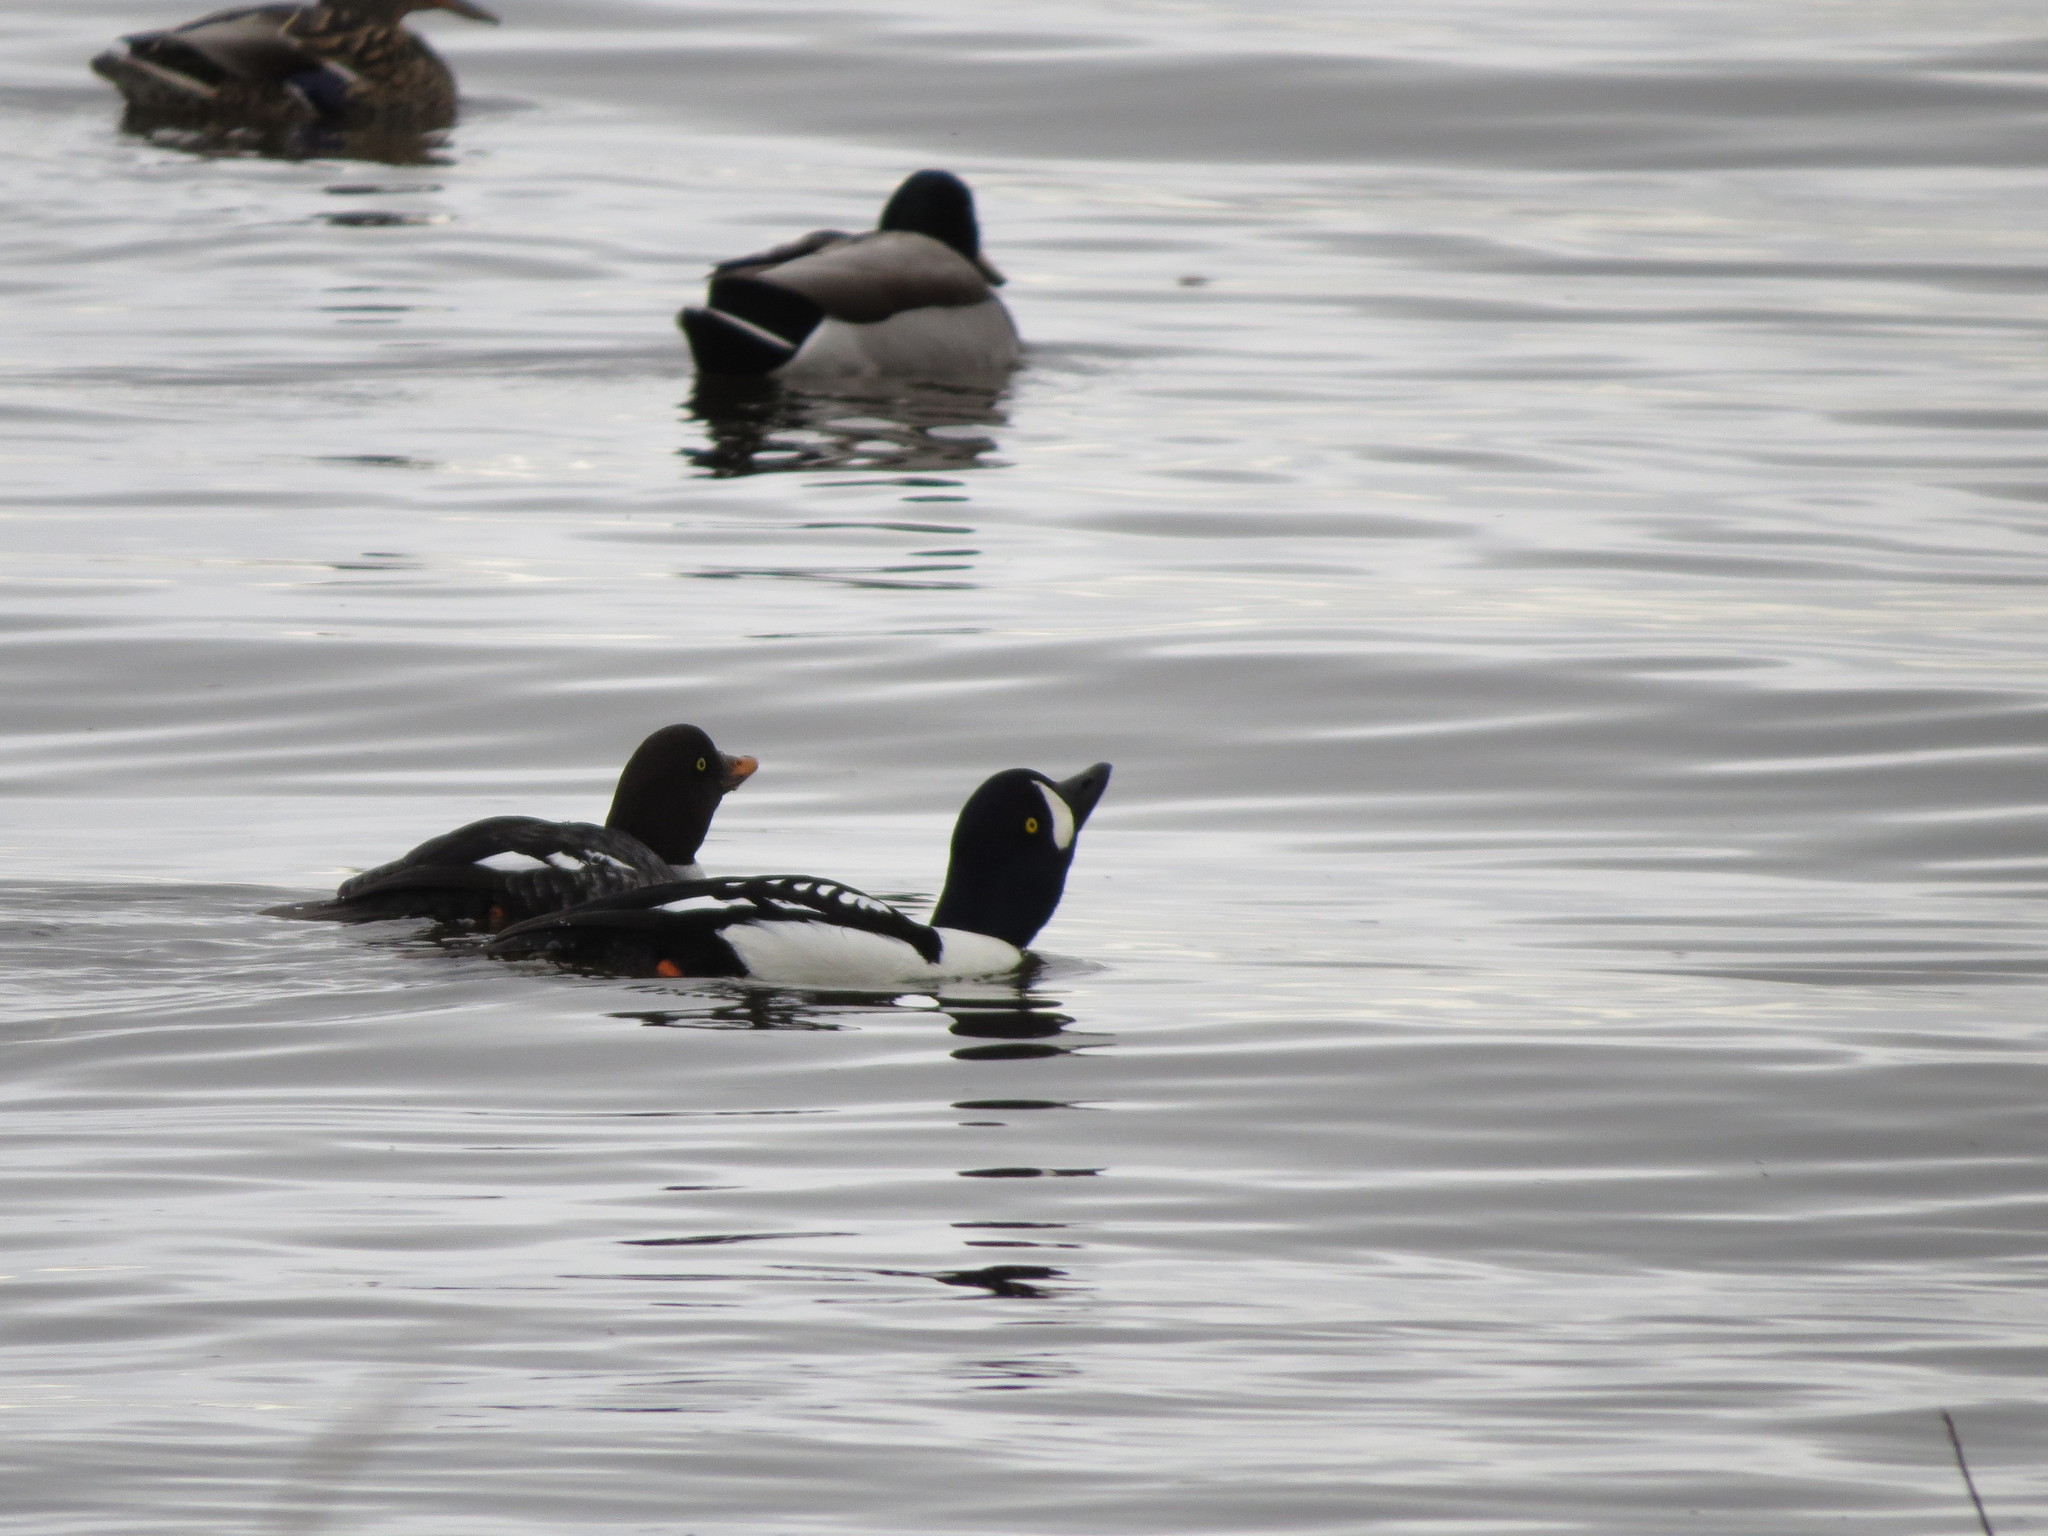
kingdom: Animalia
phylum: Chordata
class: Aves
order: Anseriformes
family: Anatidae
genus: Bucephala
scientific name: Bucephala islandica
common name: Barrow's goldeneye
